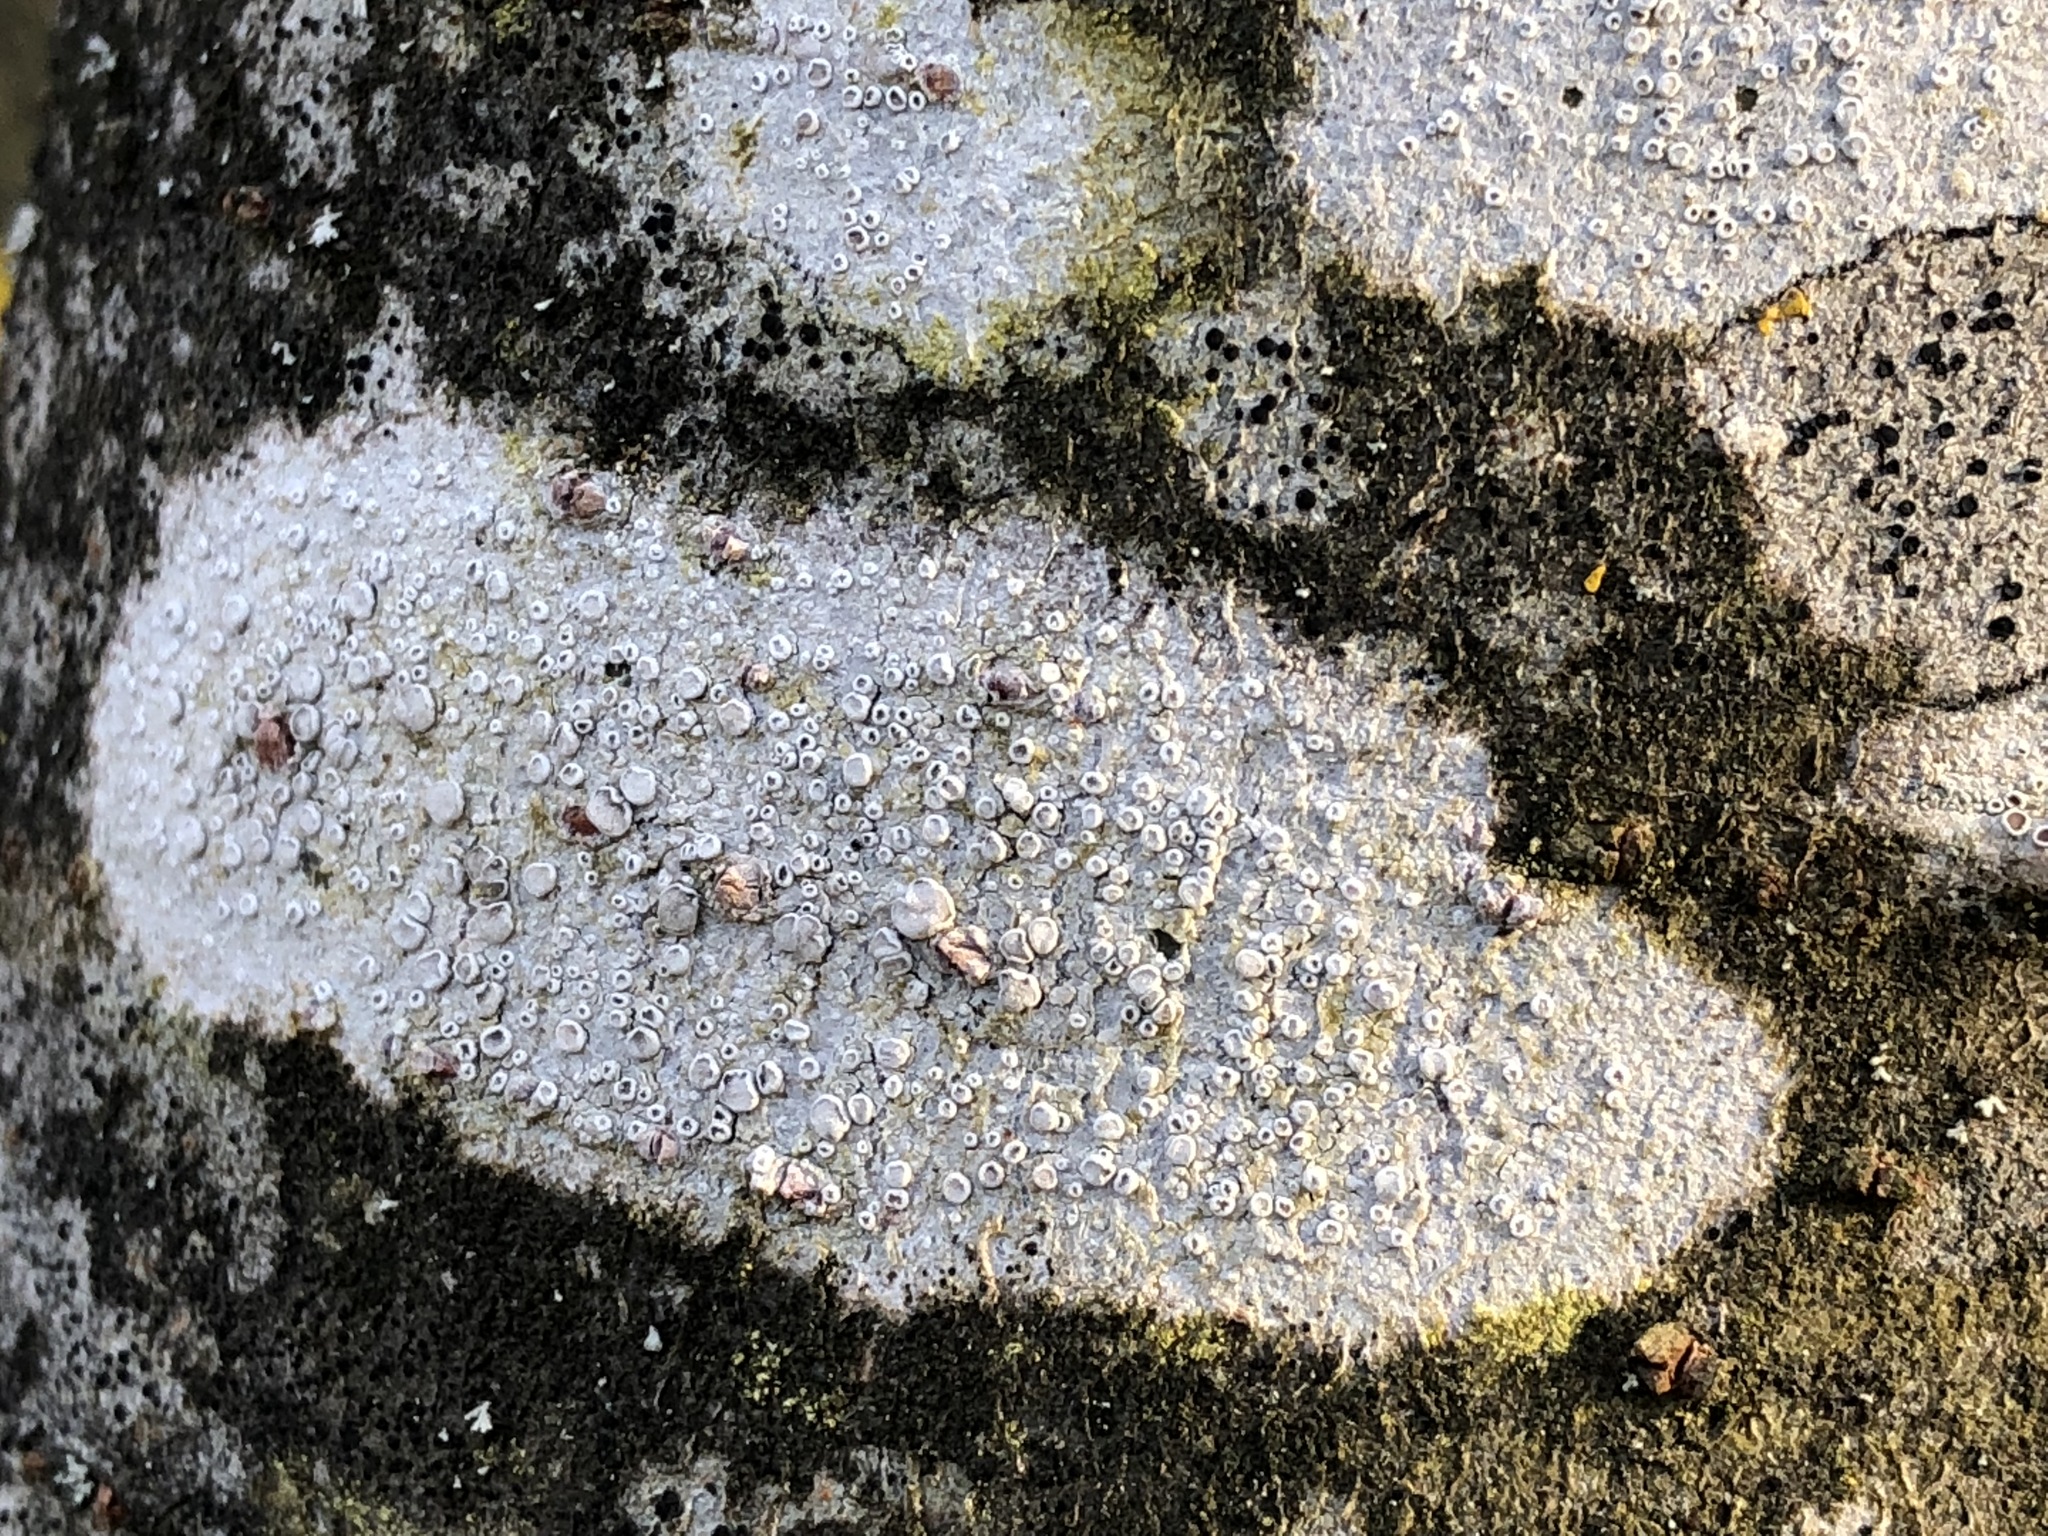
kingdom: Fungi
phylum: Ascomycota
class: Lecanoromycetes
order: Lecanorales
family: Lecanoraceae
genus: Glaucomaria
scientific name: Glaucomaria carpinea
